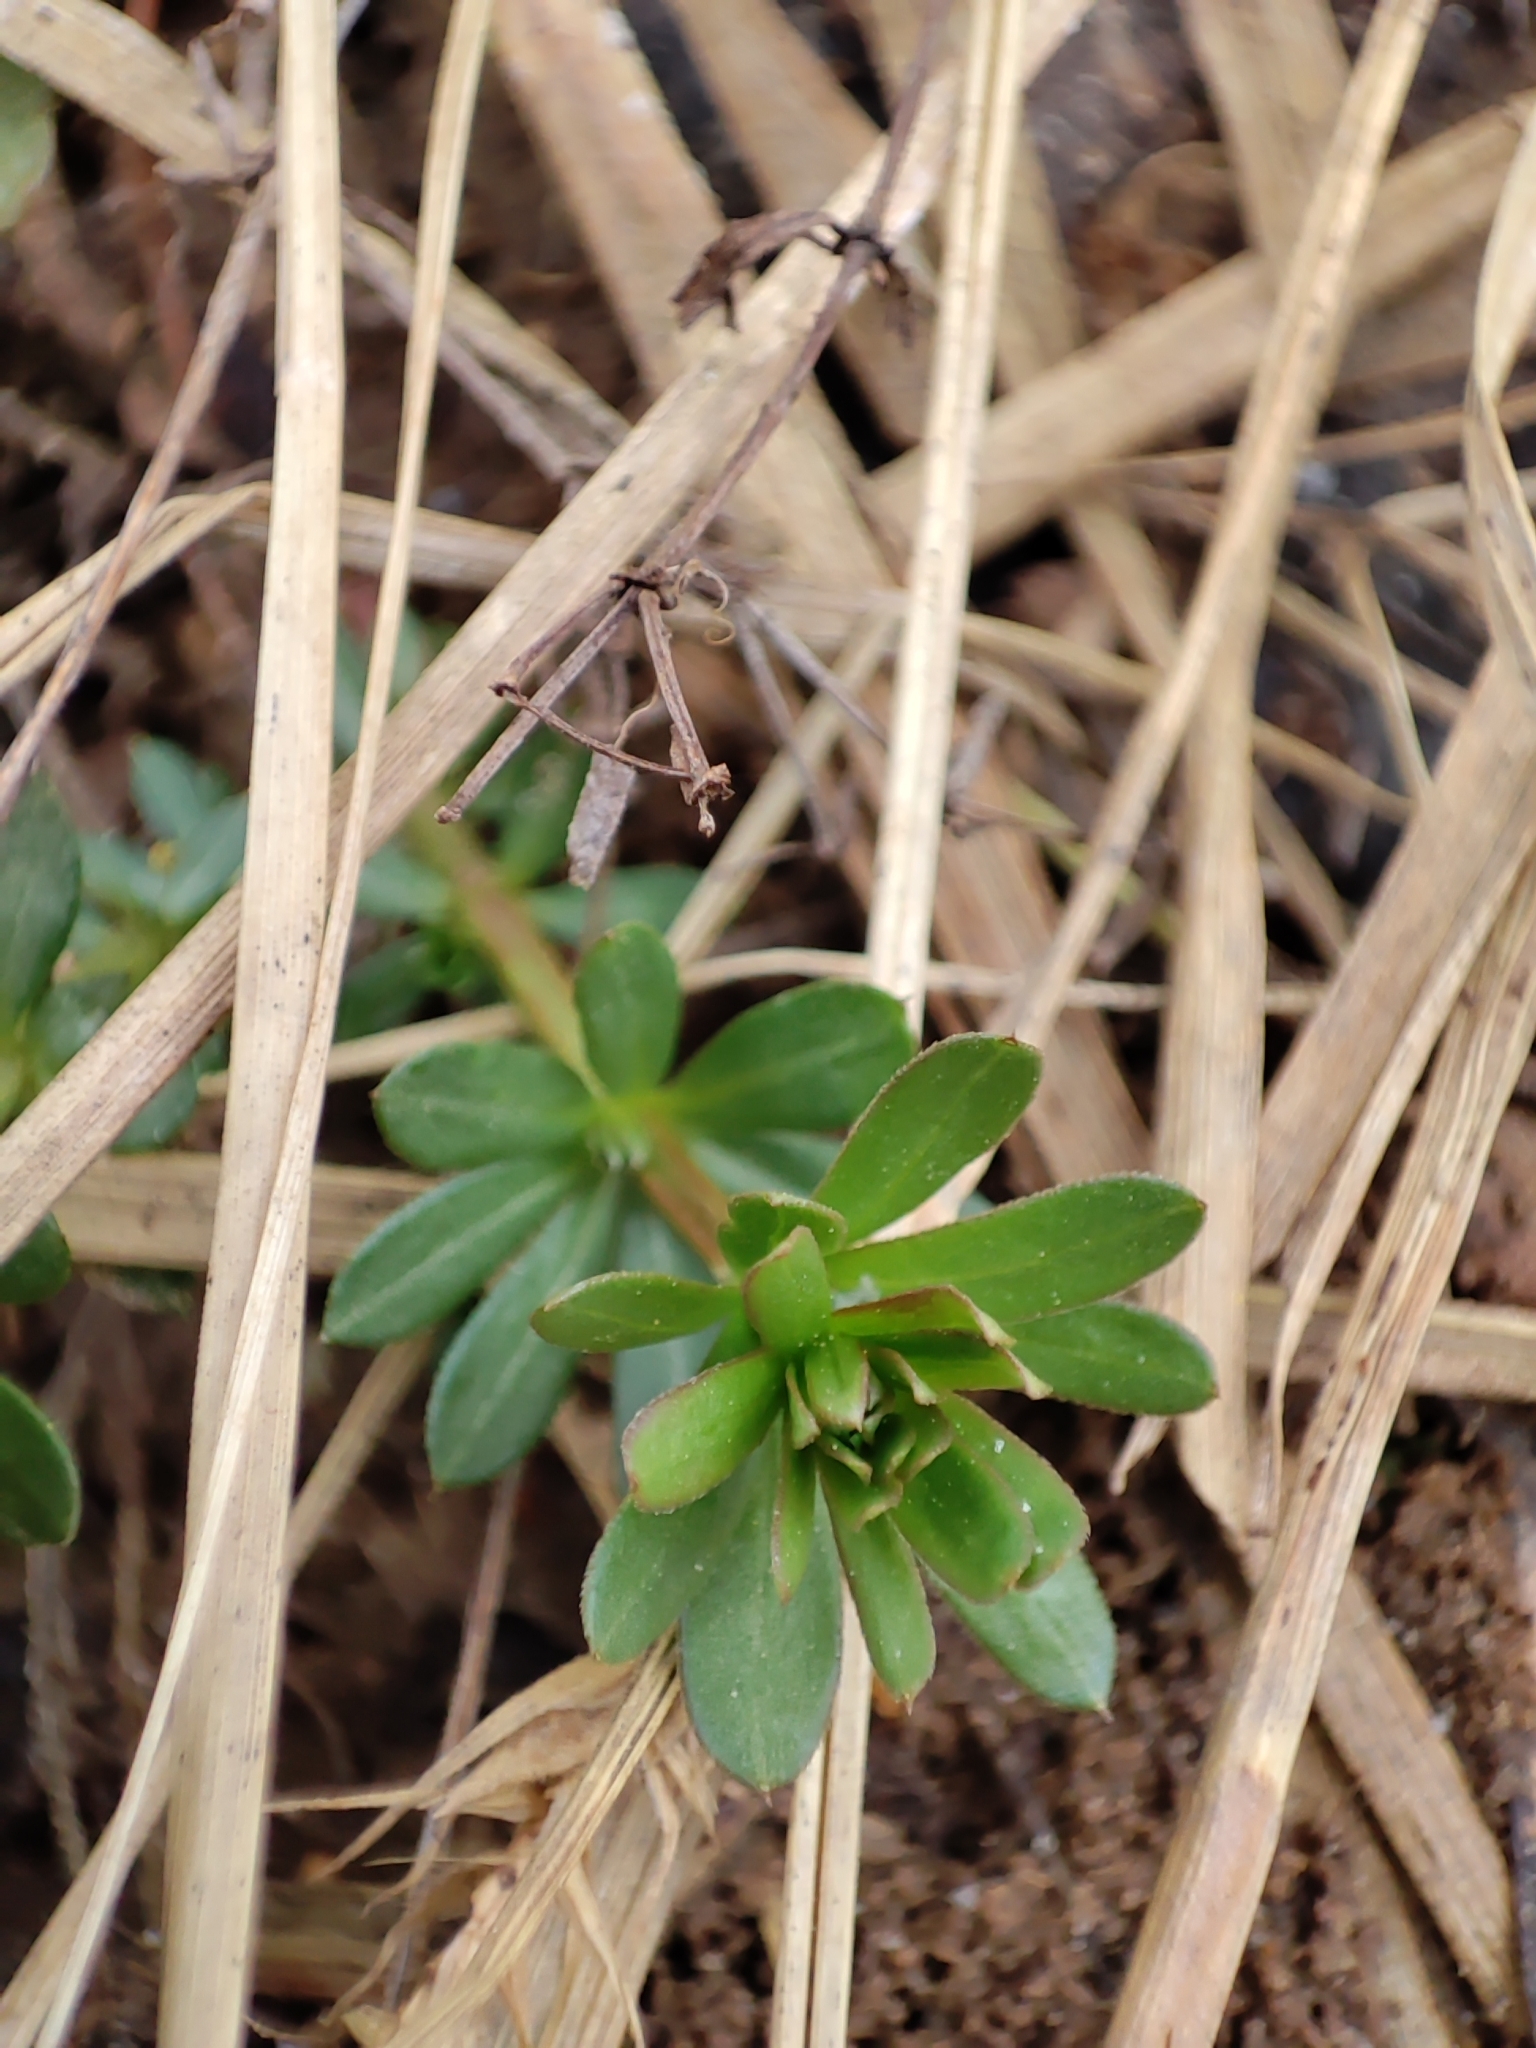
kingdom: Plantae
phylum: Tracheophyta
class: Magnoliopsida
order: Gentianales
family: Rubiaceae
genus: Galium
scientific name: Galium mollugo
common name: Hedge bedstraw
